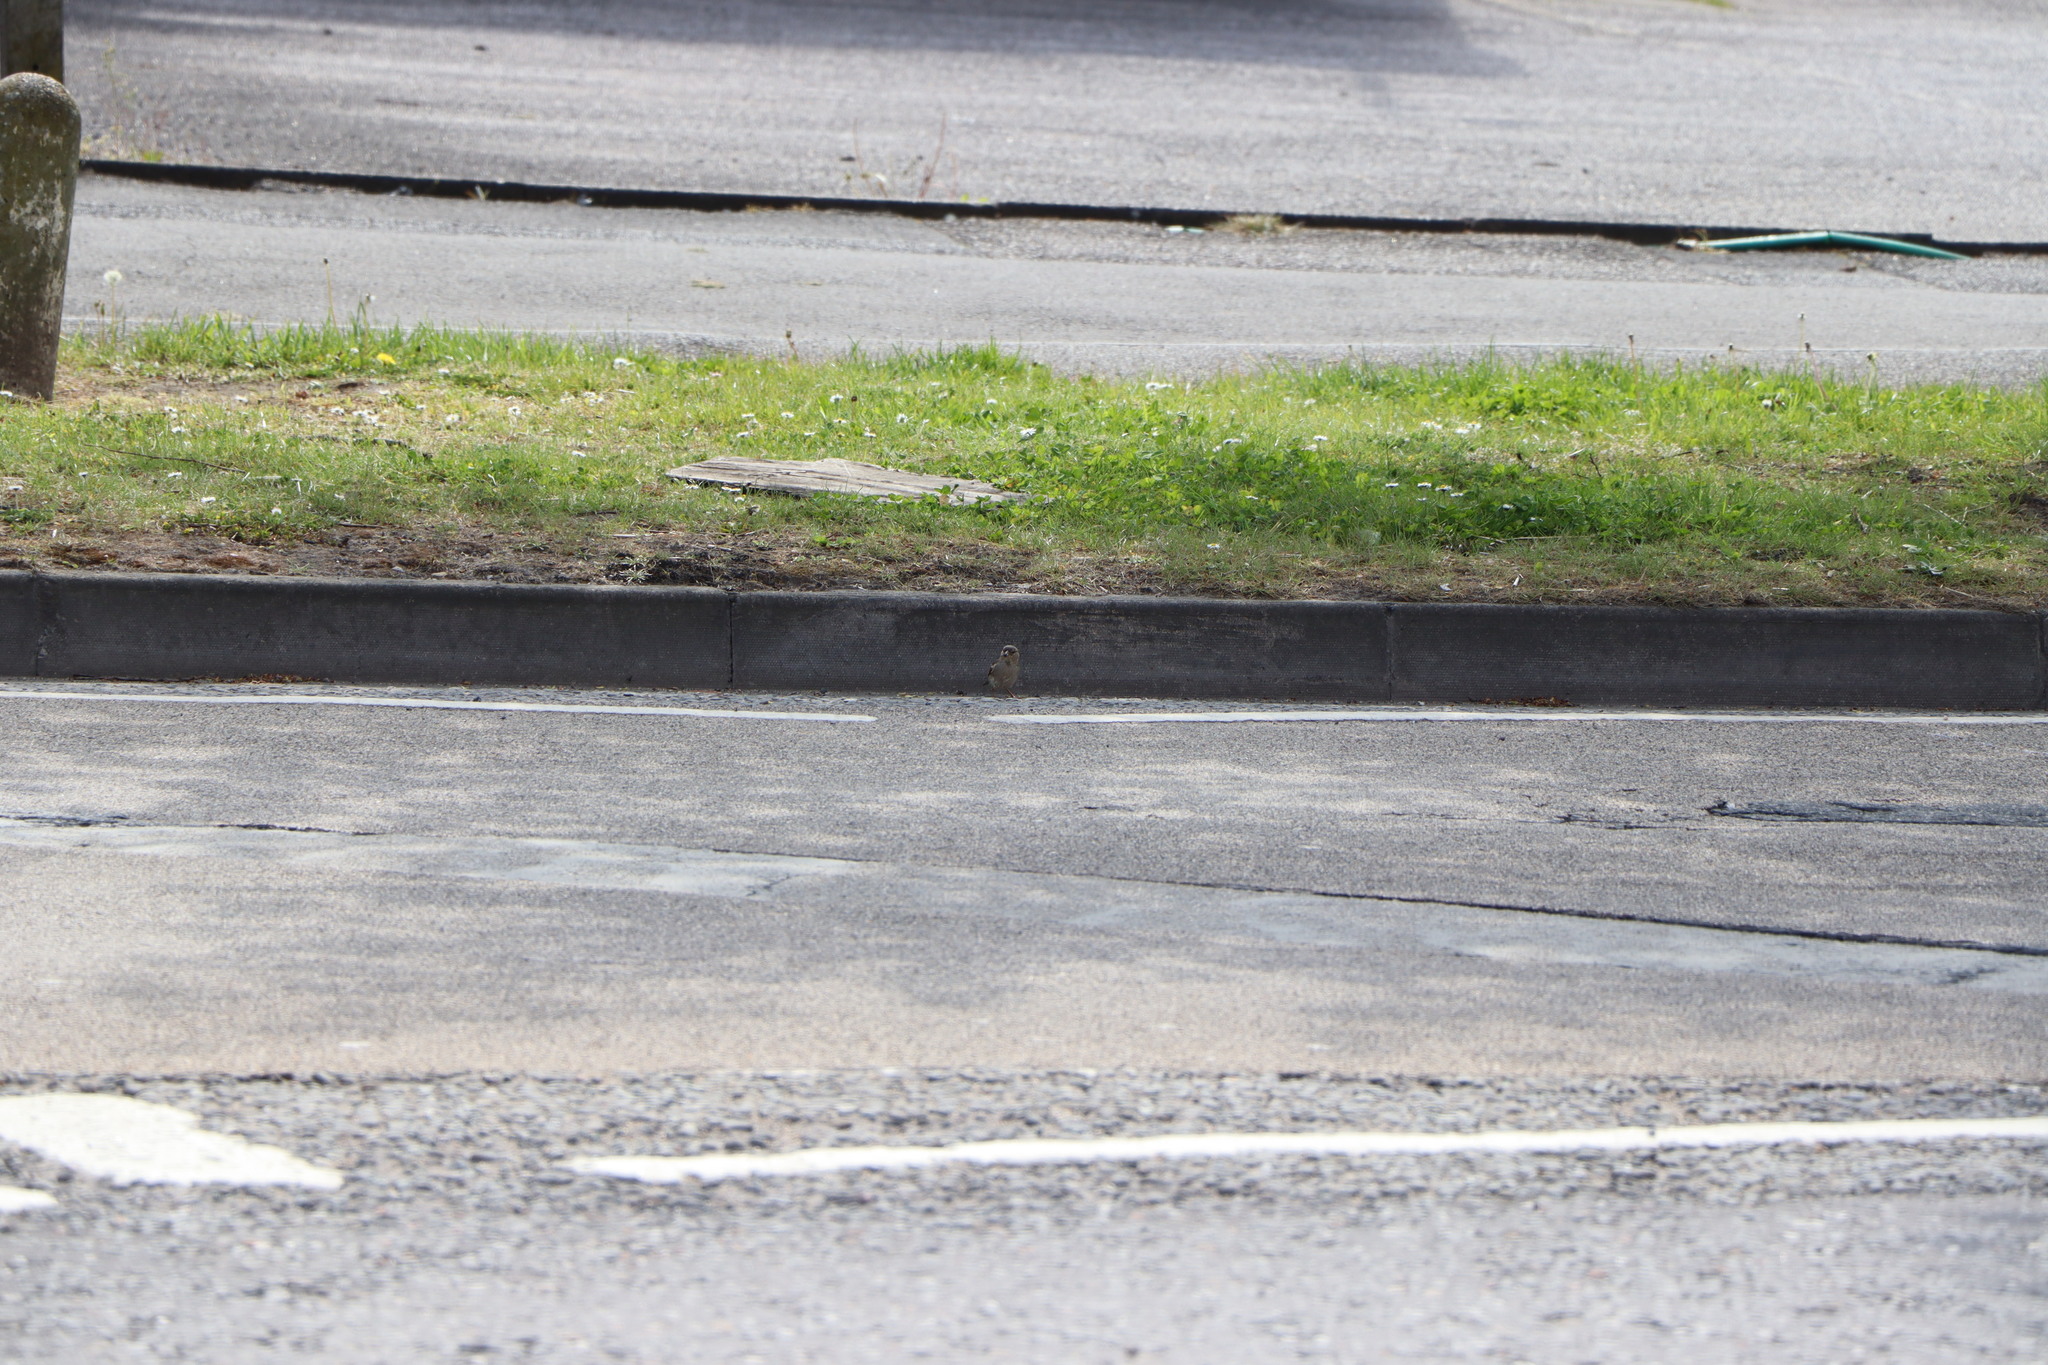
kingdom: Animalia
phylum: Chordata
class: Aves
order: Passeriformes
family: Passeridae
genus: Passer
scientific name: Passer domesticus
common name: House sparrow
